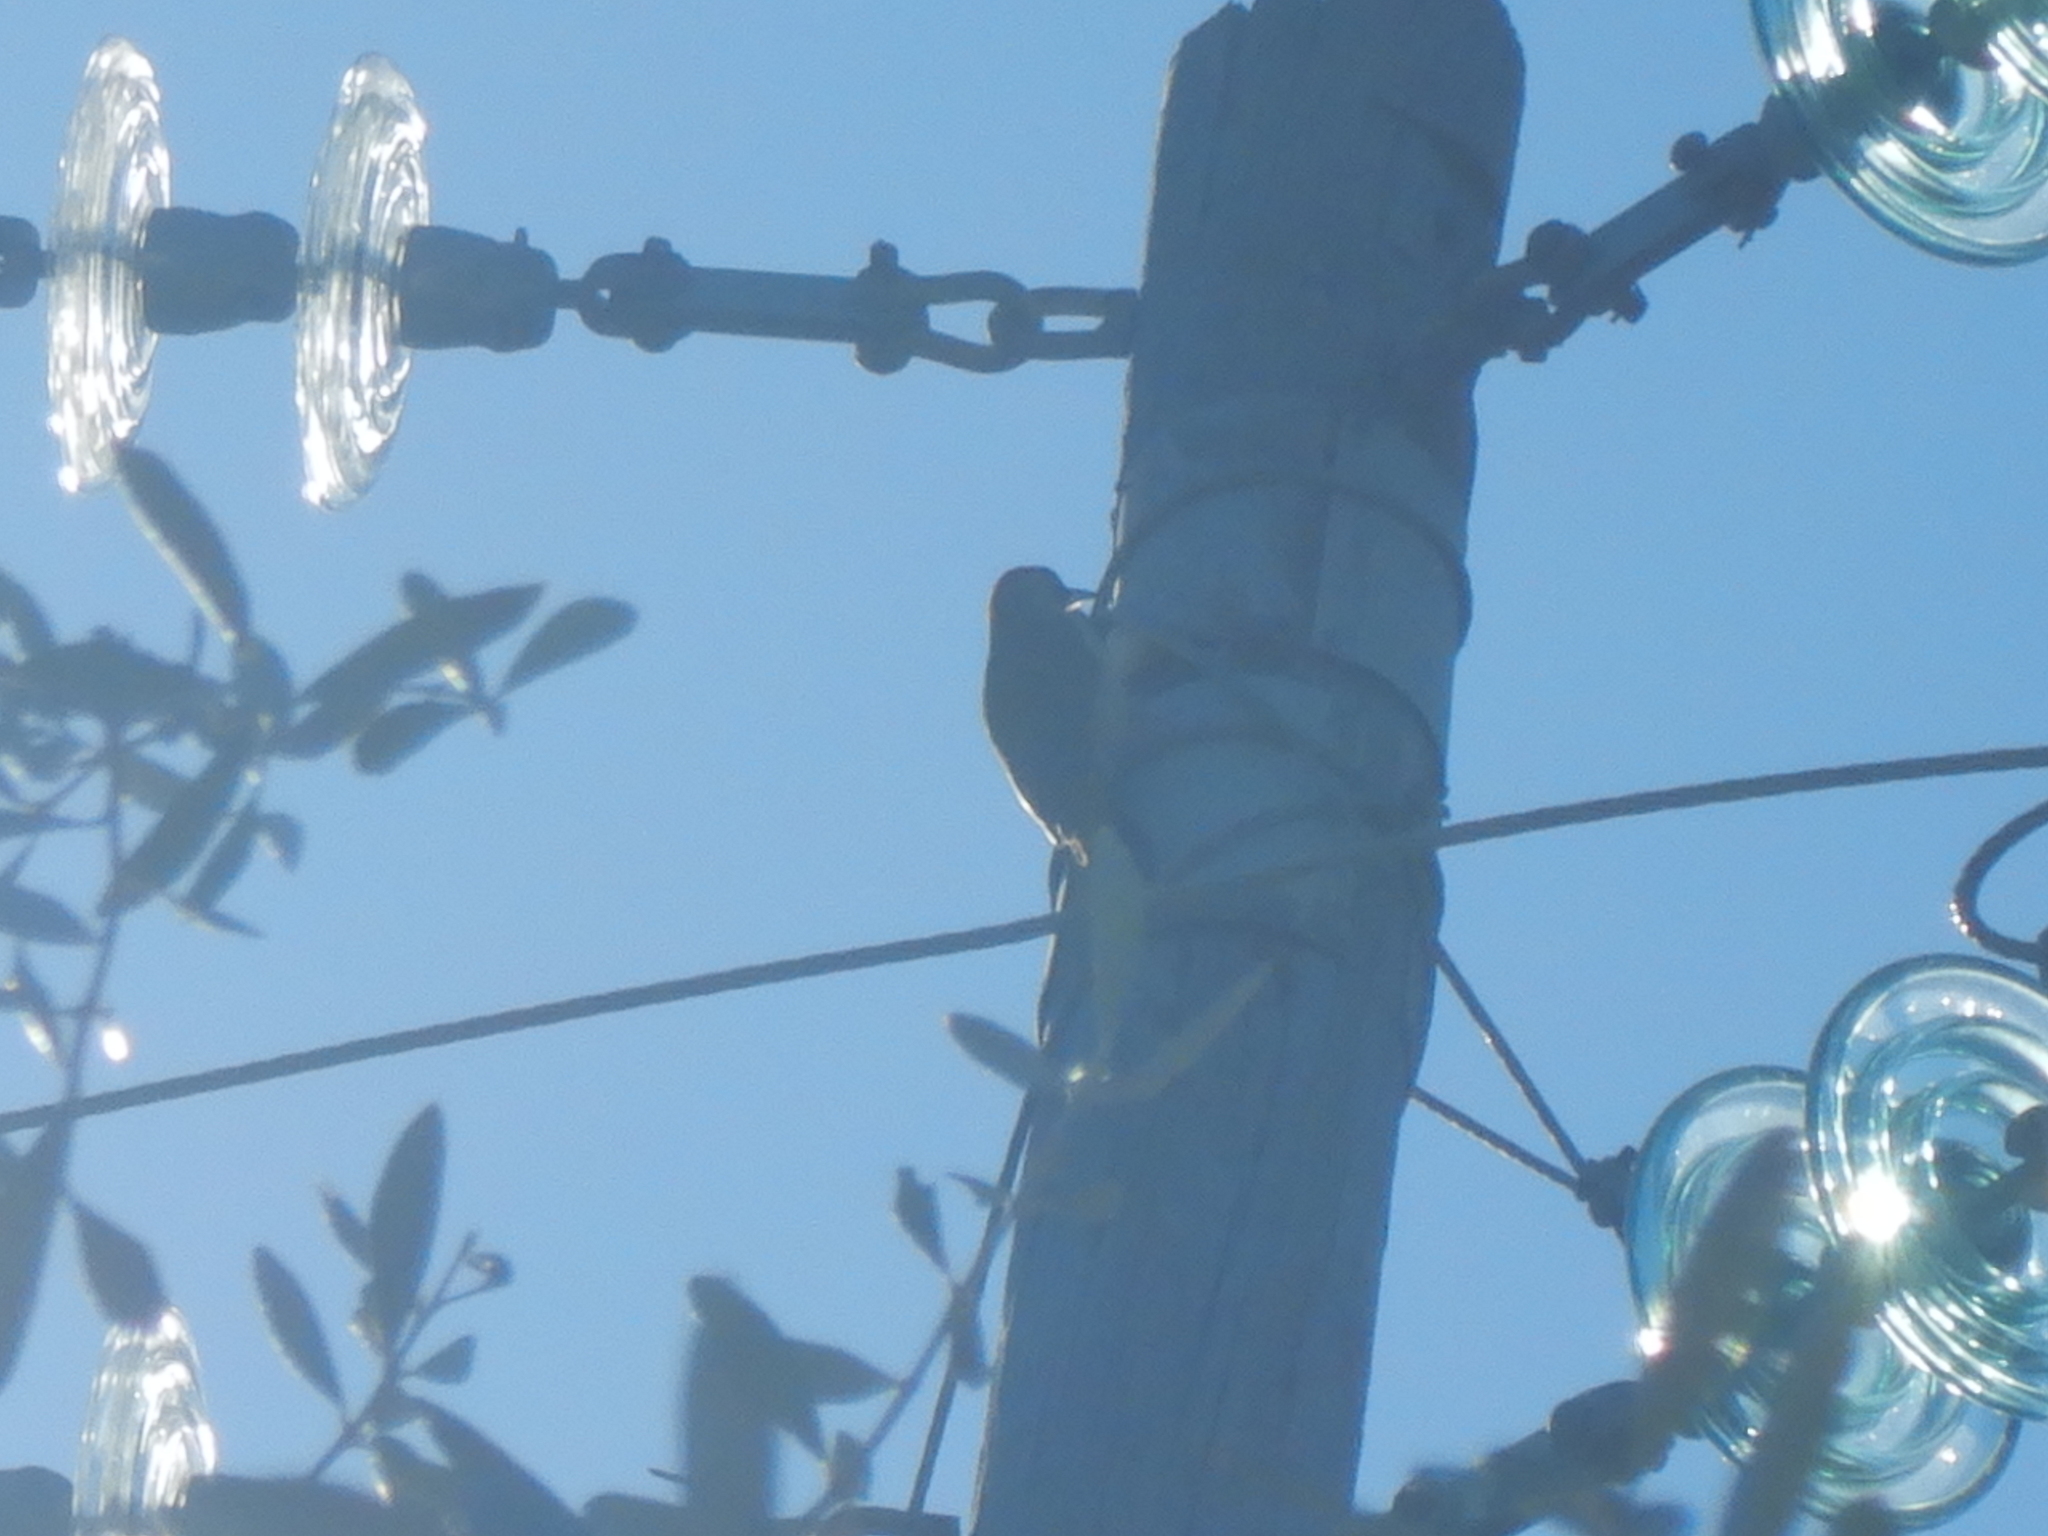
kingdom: Animalia
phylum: Chordata
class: Aves
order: Piciformes
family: Picidae
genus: Picus
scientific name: Picus viridis
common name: European green woodpecker
